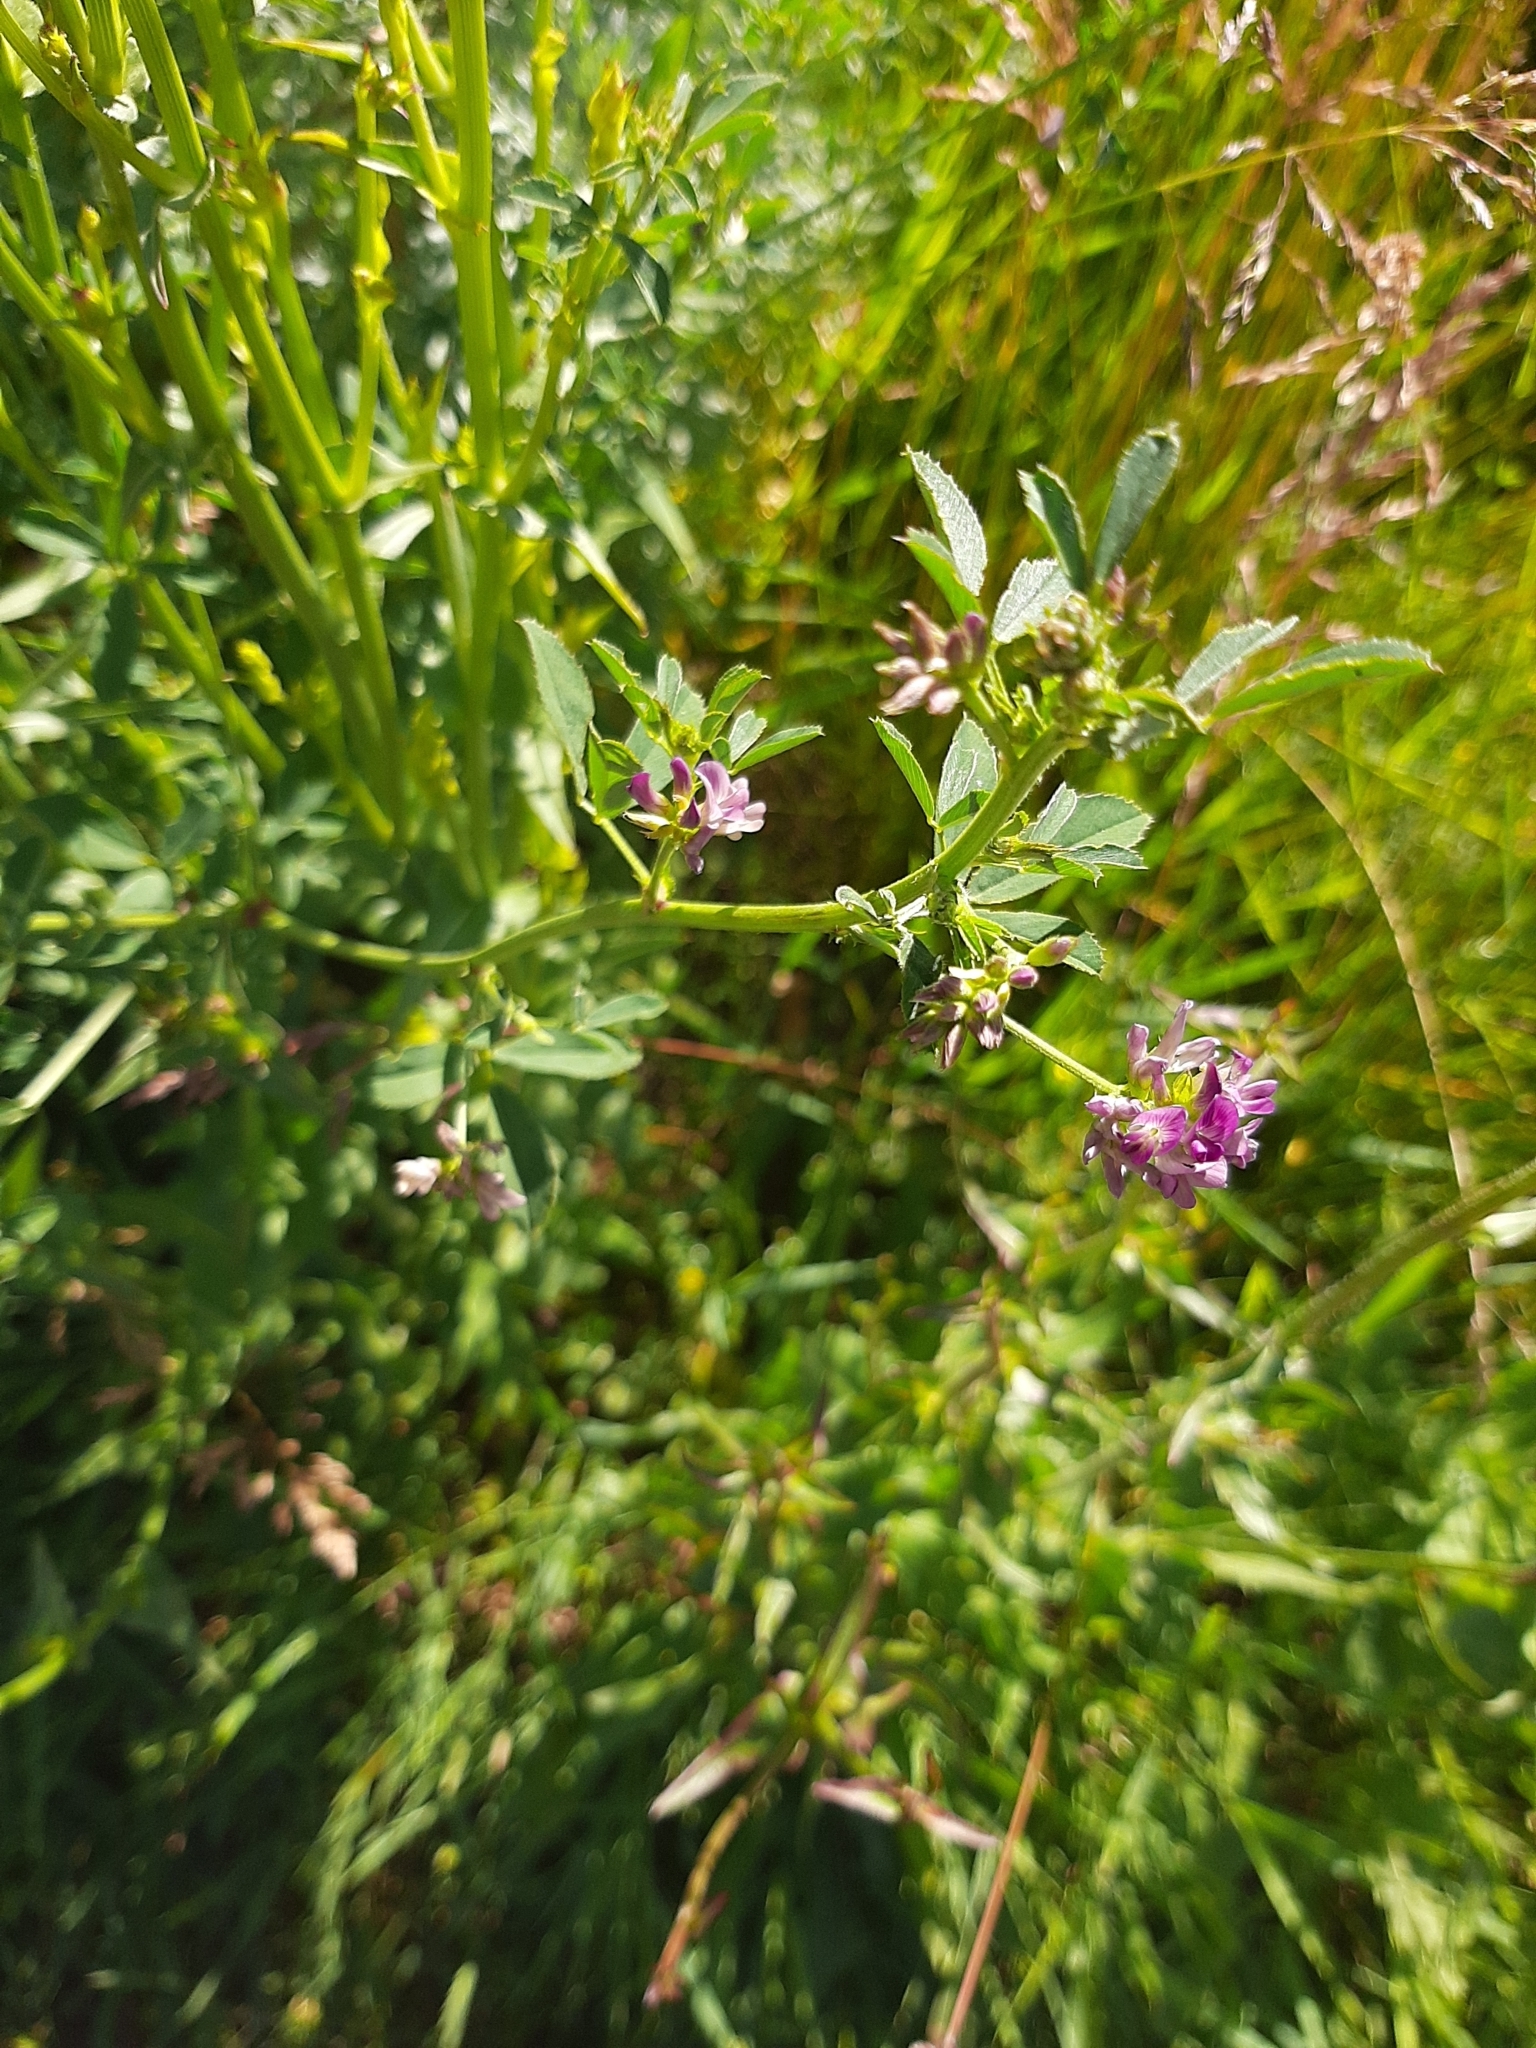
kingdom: Plantae
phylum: Tracheophyta
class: Magnoliopsida
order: Fabales
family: Fabaceae
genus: Medicago
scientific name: Medicago sativa
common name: Alfalfa
